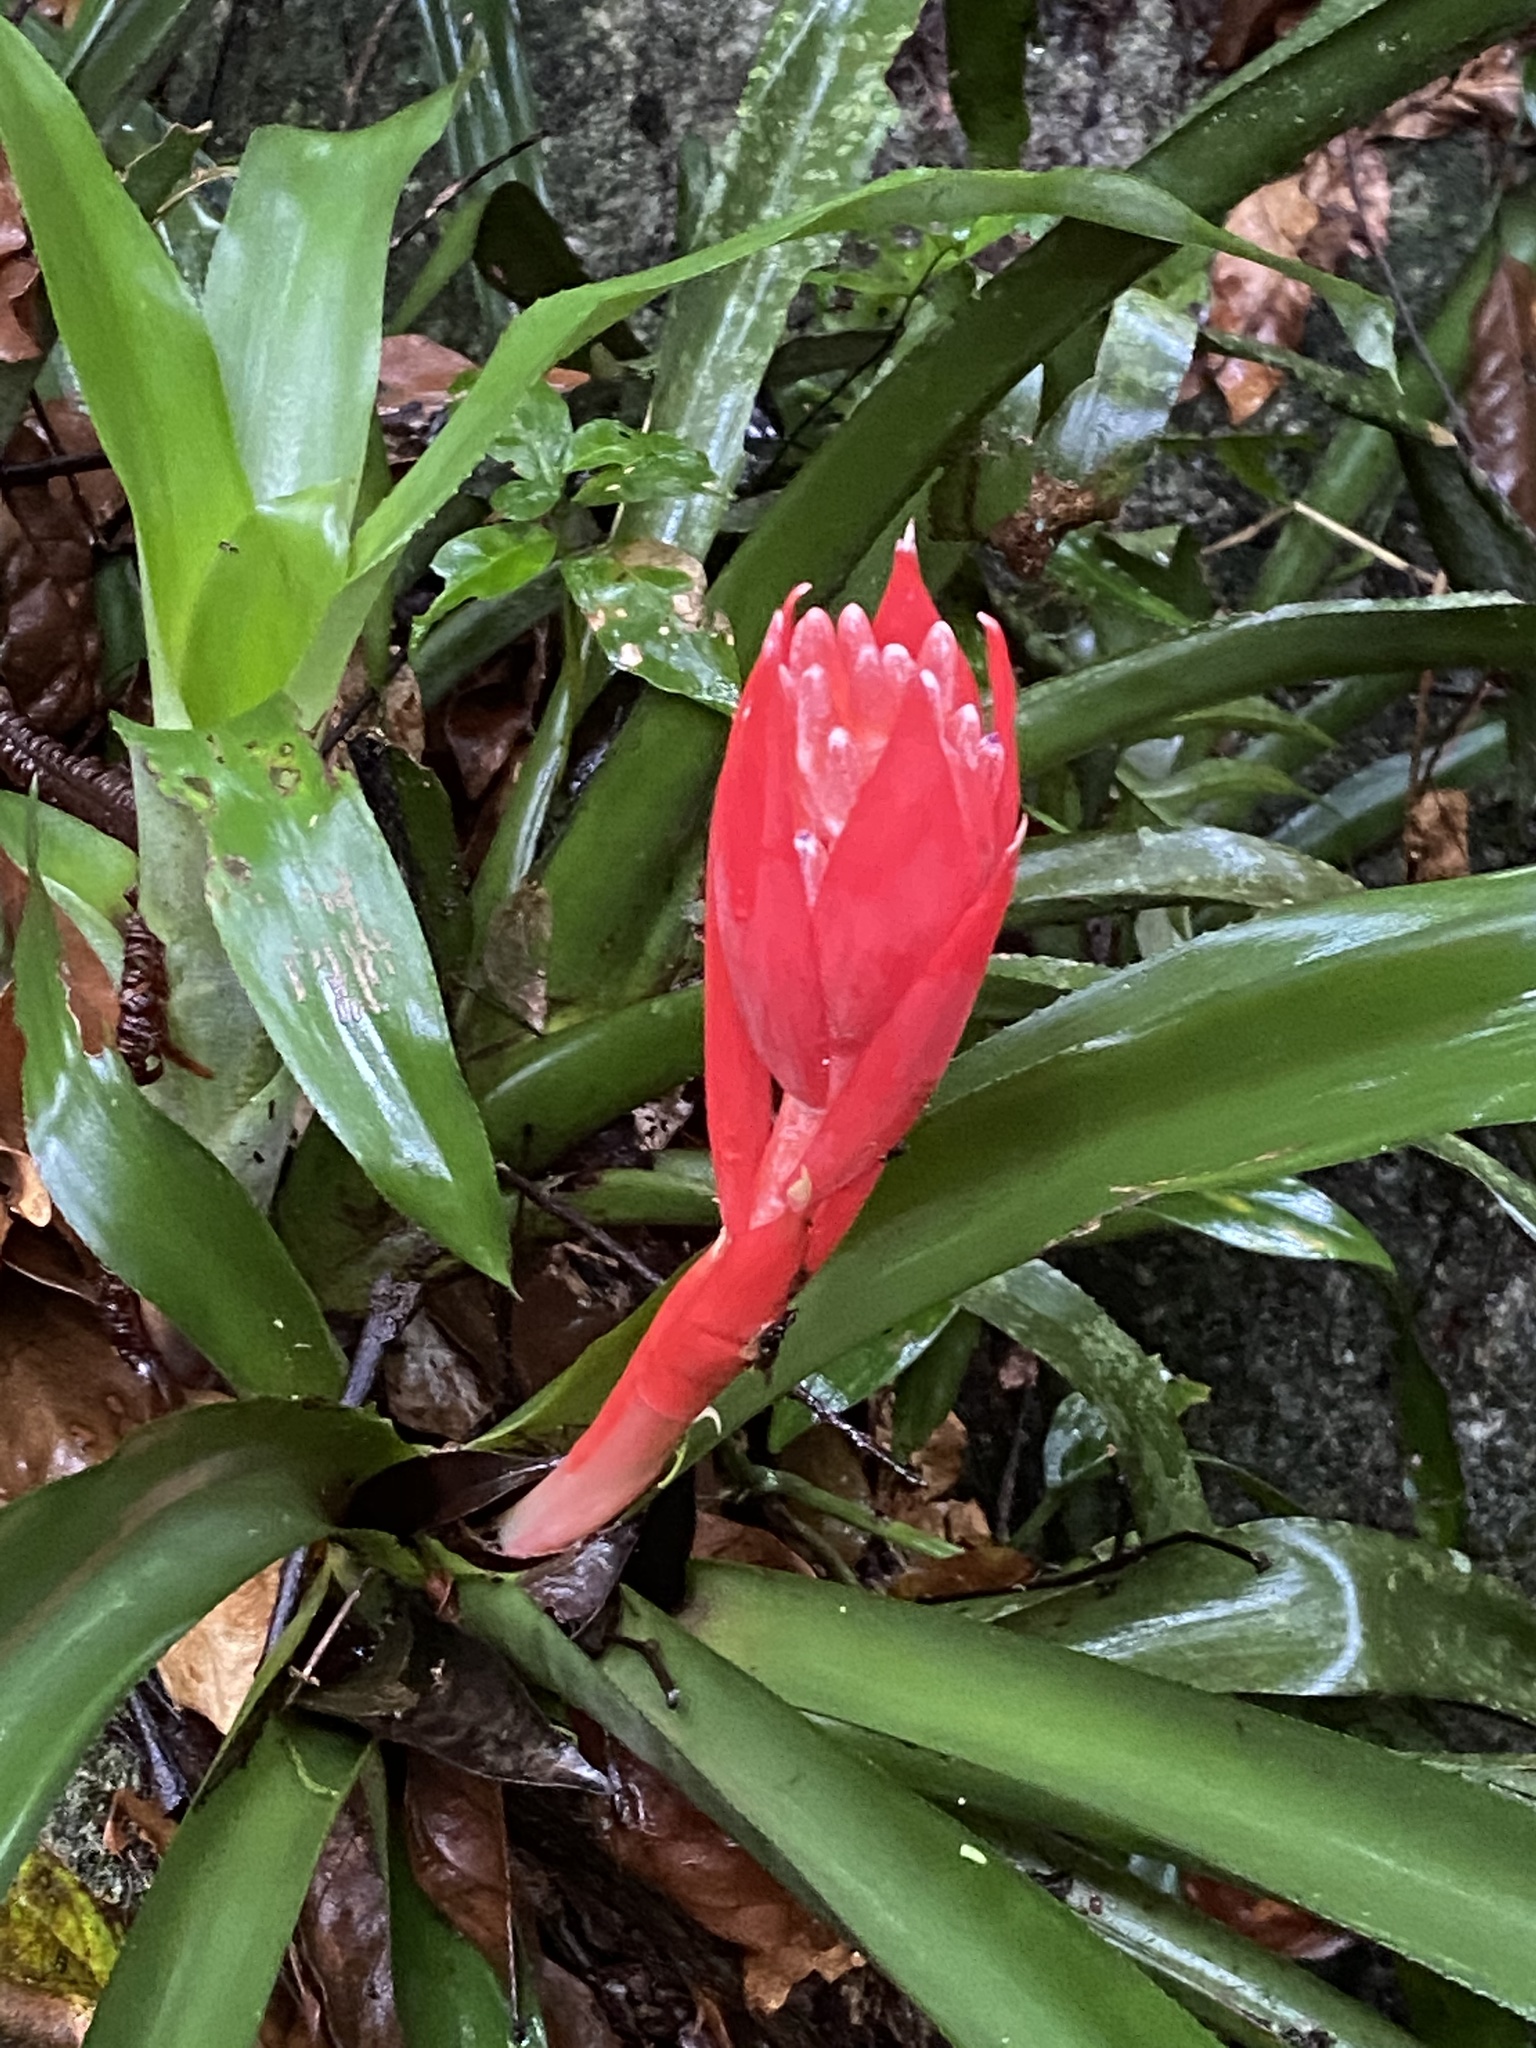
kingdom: Plantae
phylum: Tracheophyta
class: Liliopsida
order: Poales
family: Bromeliaceae
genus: Billbergia
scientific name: Billbergia pyramidalis
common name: Foolproofplant
